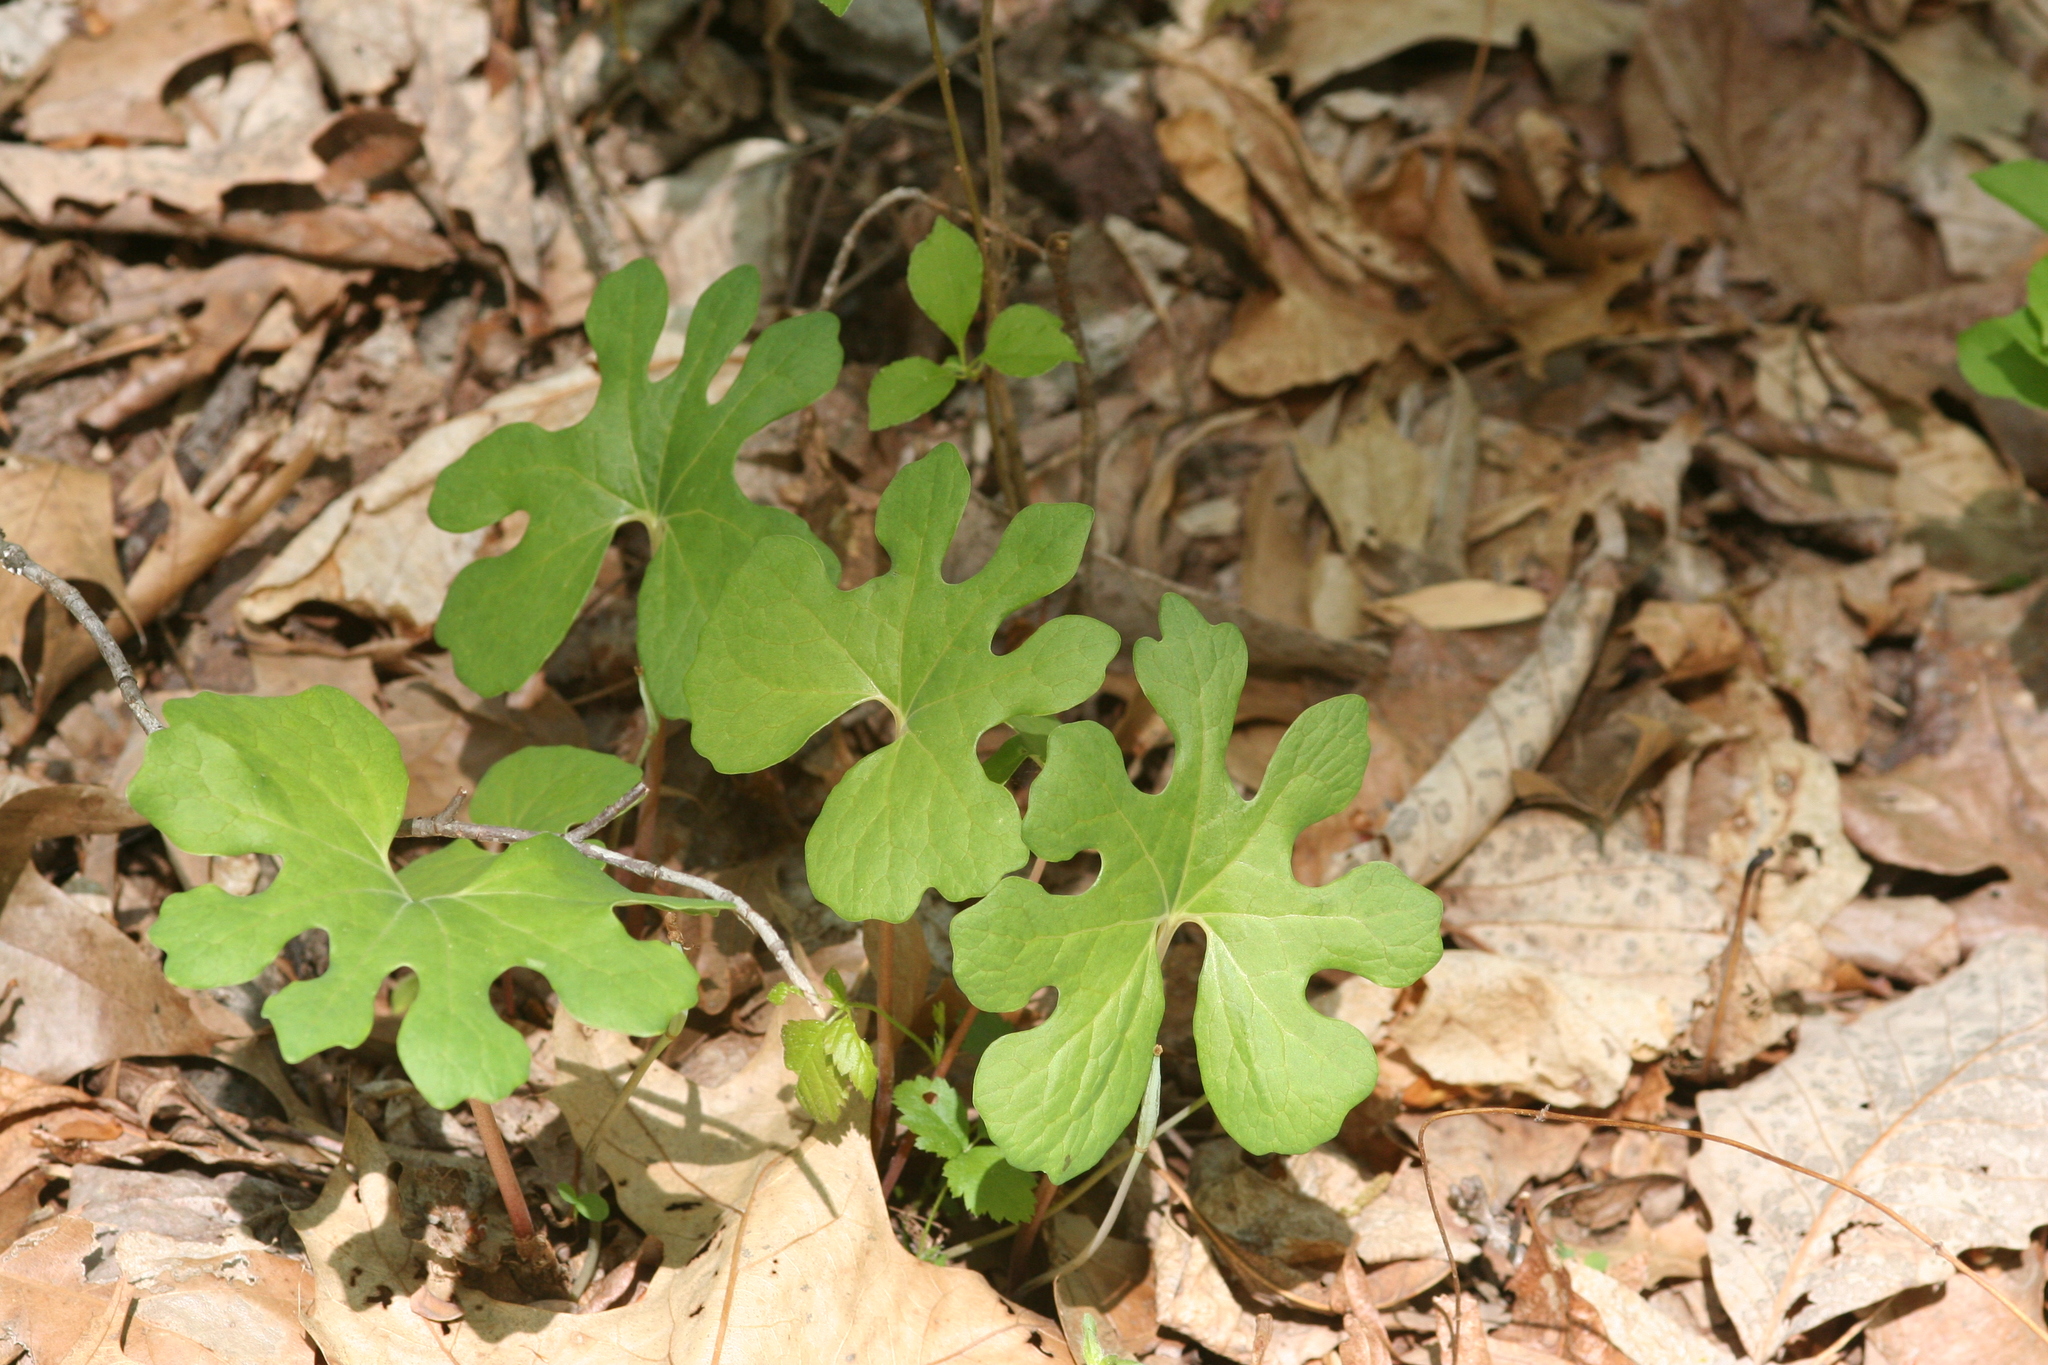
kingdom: Plantae
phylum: Tracheophyta
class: Magnoliopsida
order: Ranunculales
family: Papaveraceae
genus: Sanguinaria
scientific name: Sanguinaria canadensis
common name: Bloodroot
